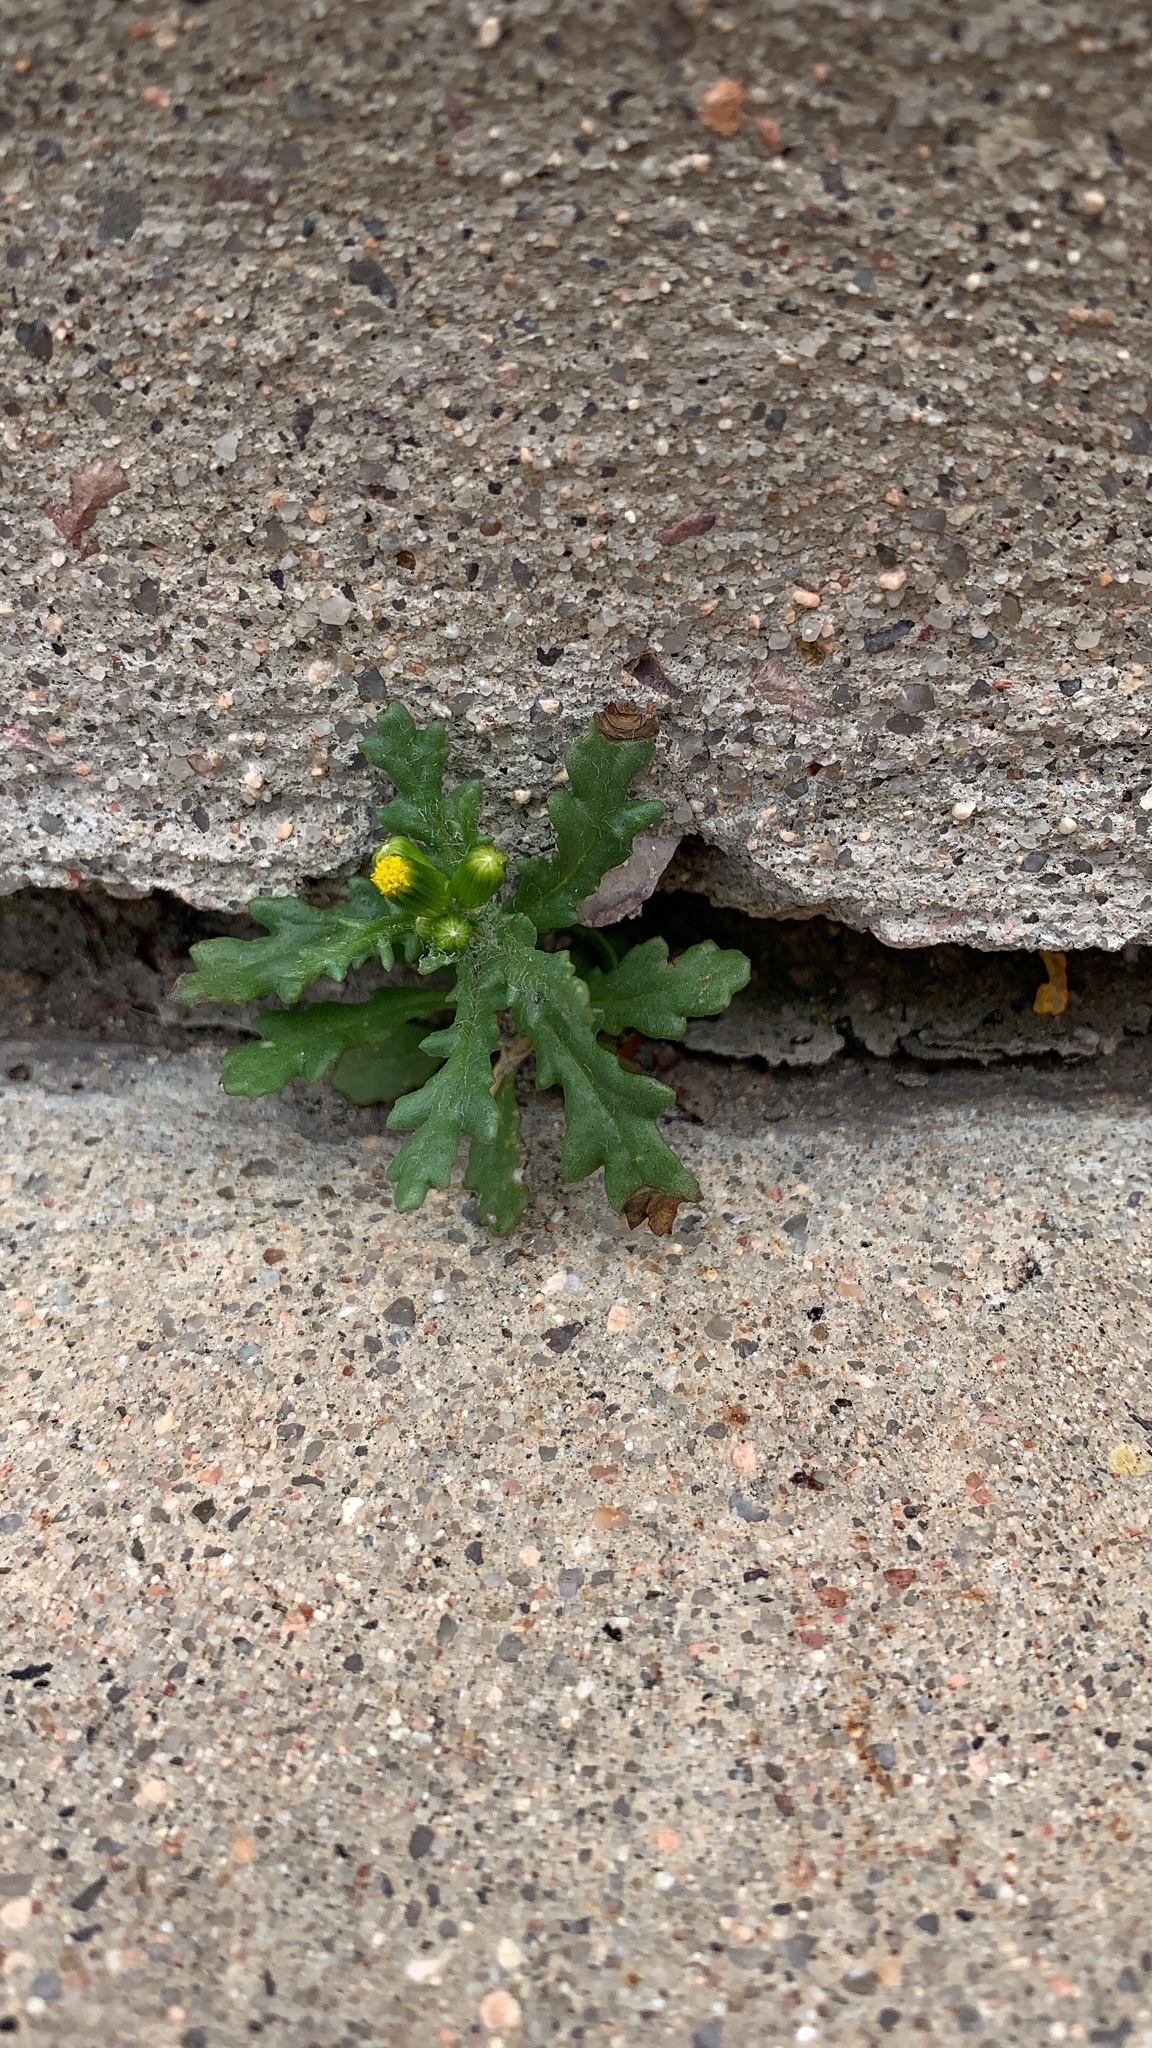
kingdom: Plantae
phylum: Tracheophyta
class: Magnoliopsida
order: Asterales
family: Asteraceae
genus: Senecio
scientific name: Senecio vulgaris
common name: Old-man-in-the-spring
